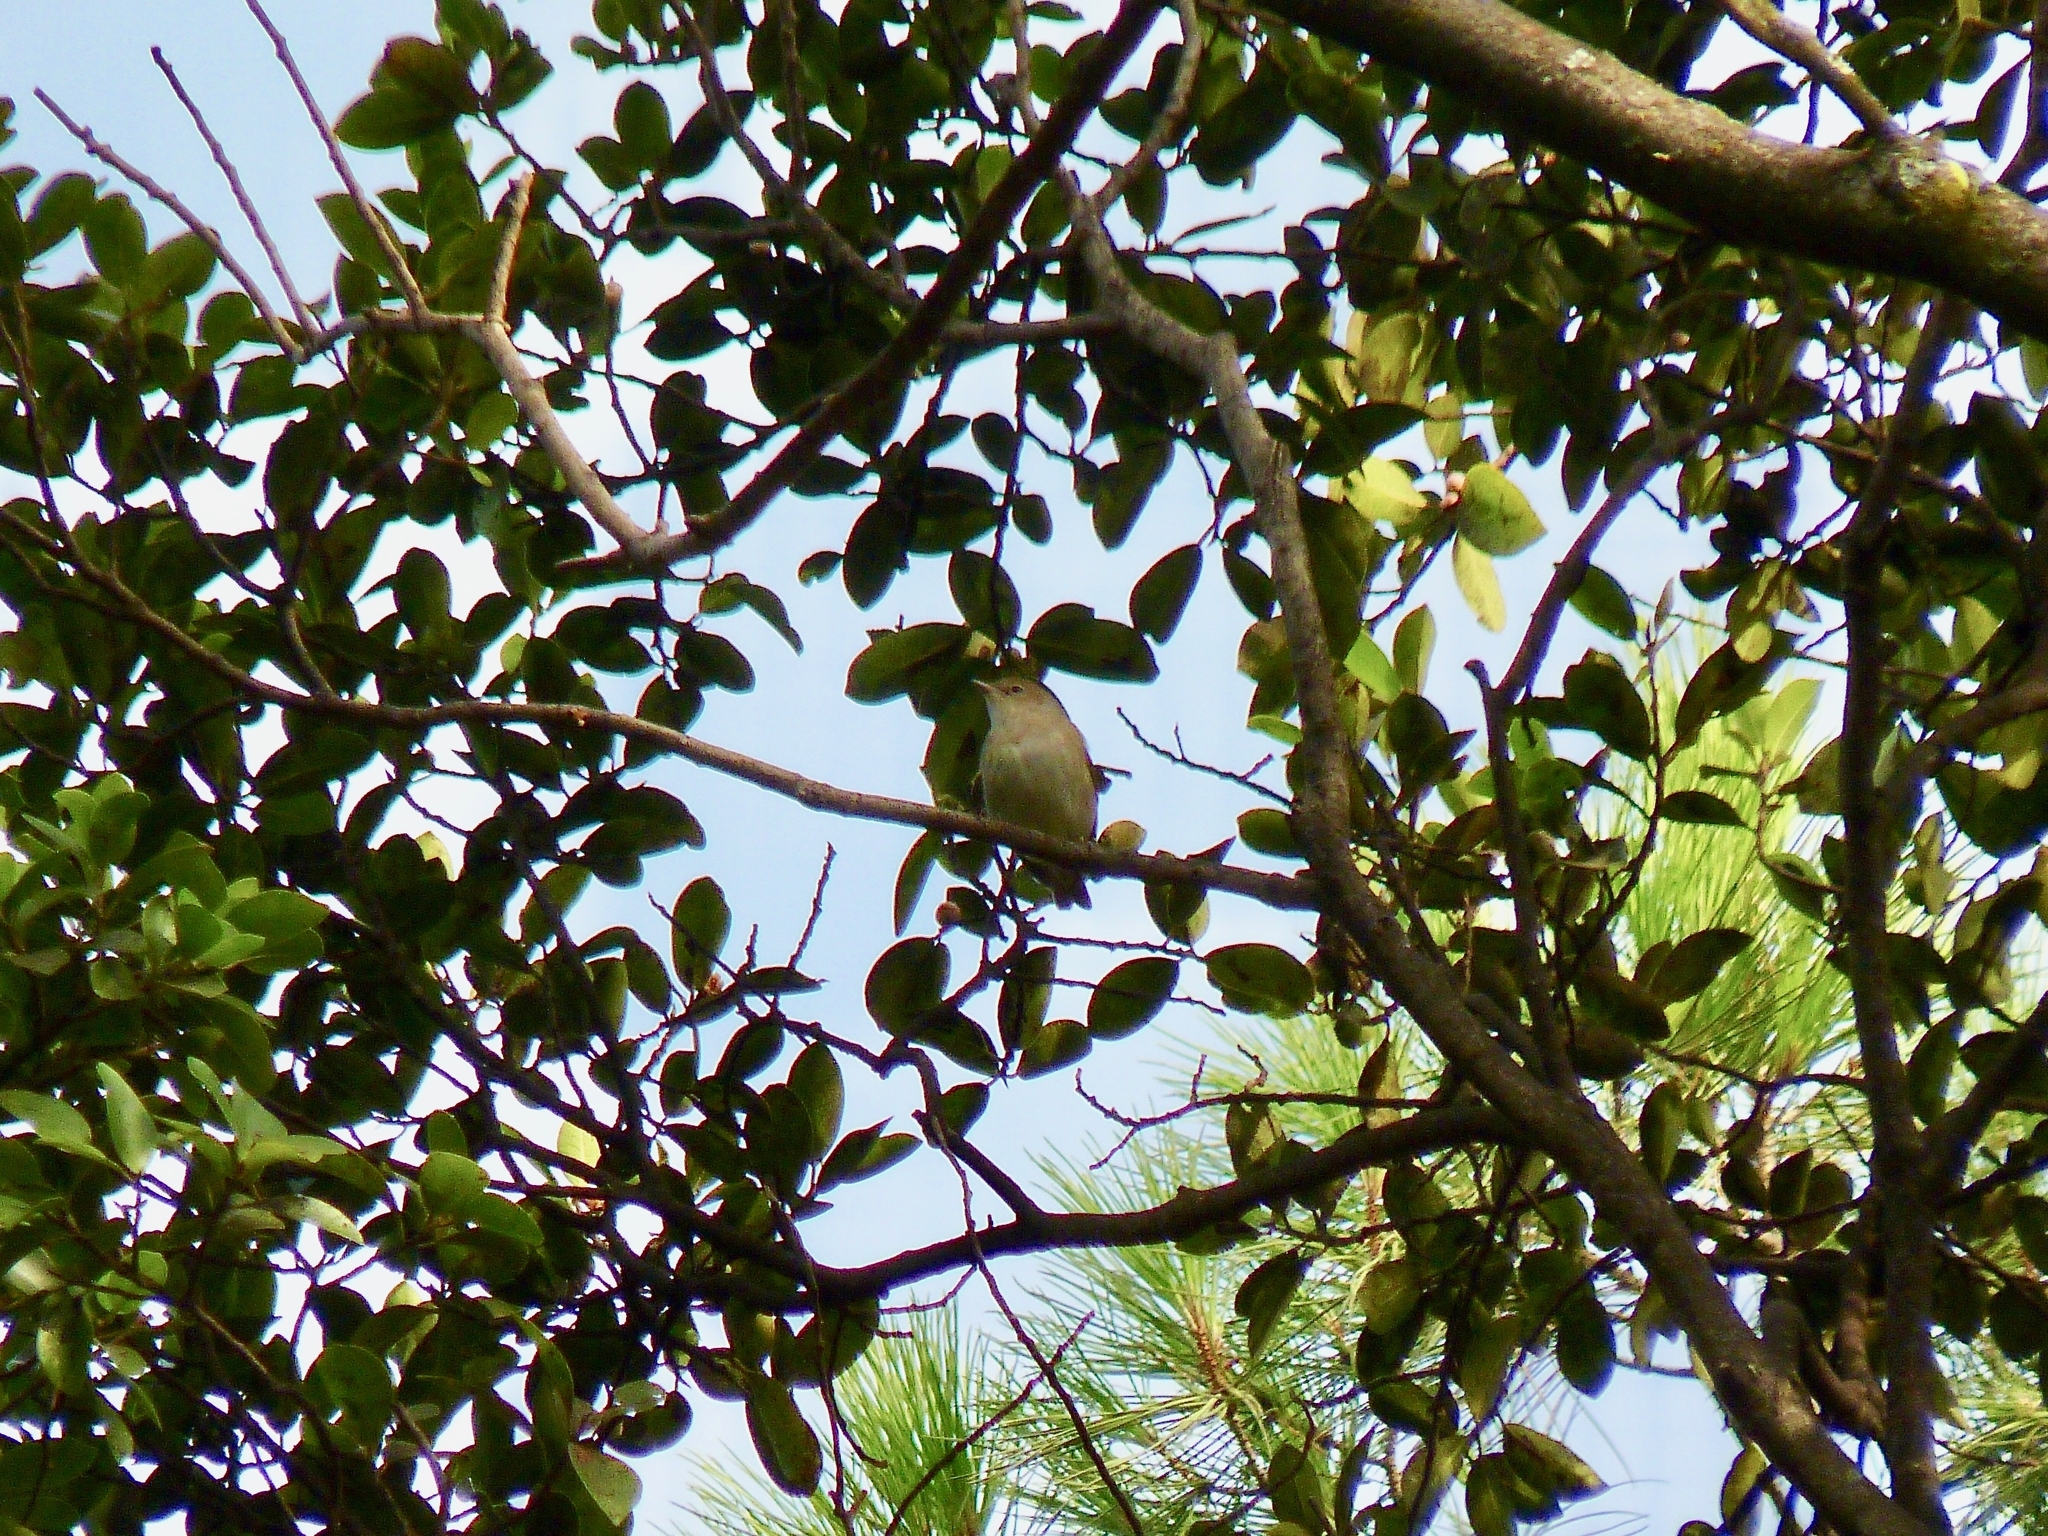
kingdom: Animalia
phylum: Chordata
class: Aves
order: Passeriformes
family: Sylviidae
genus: Sylvia
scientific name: Sylvia borin
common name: Garden warbler
